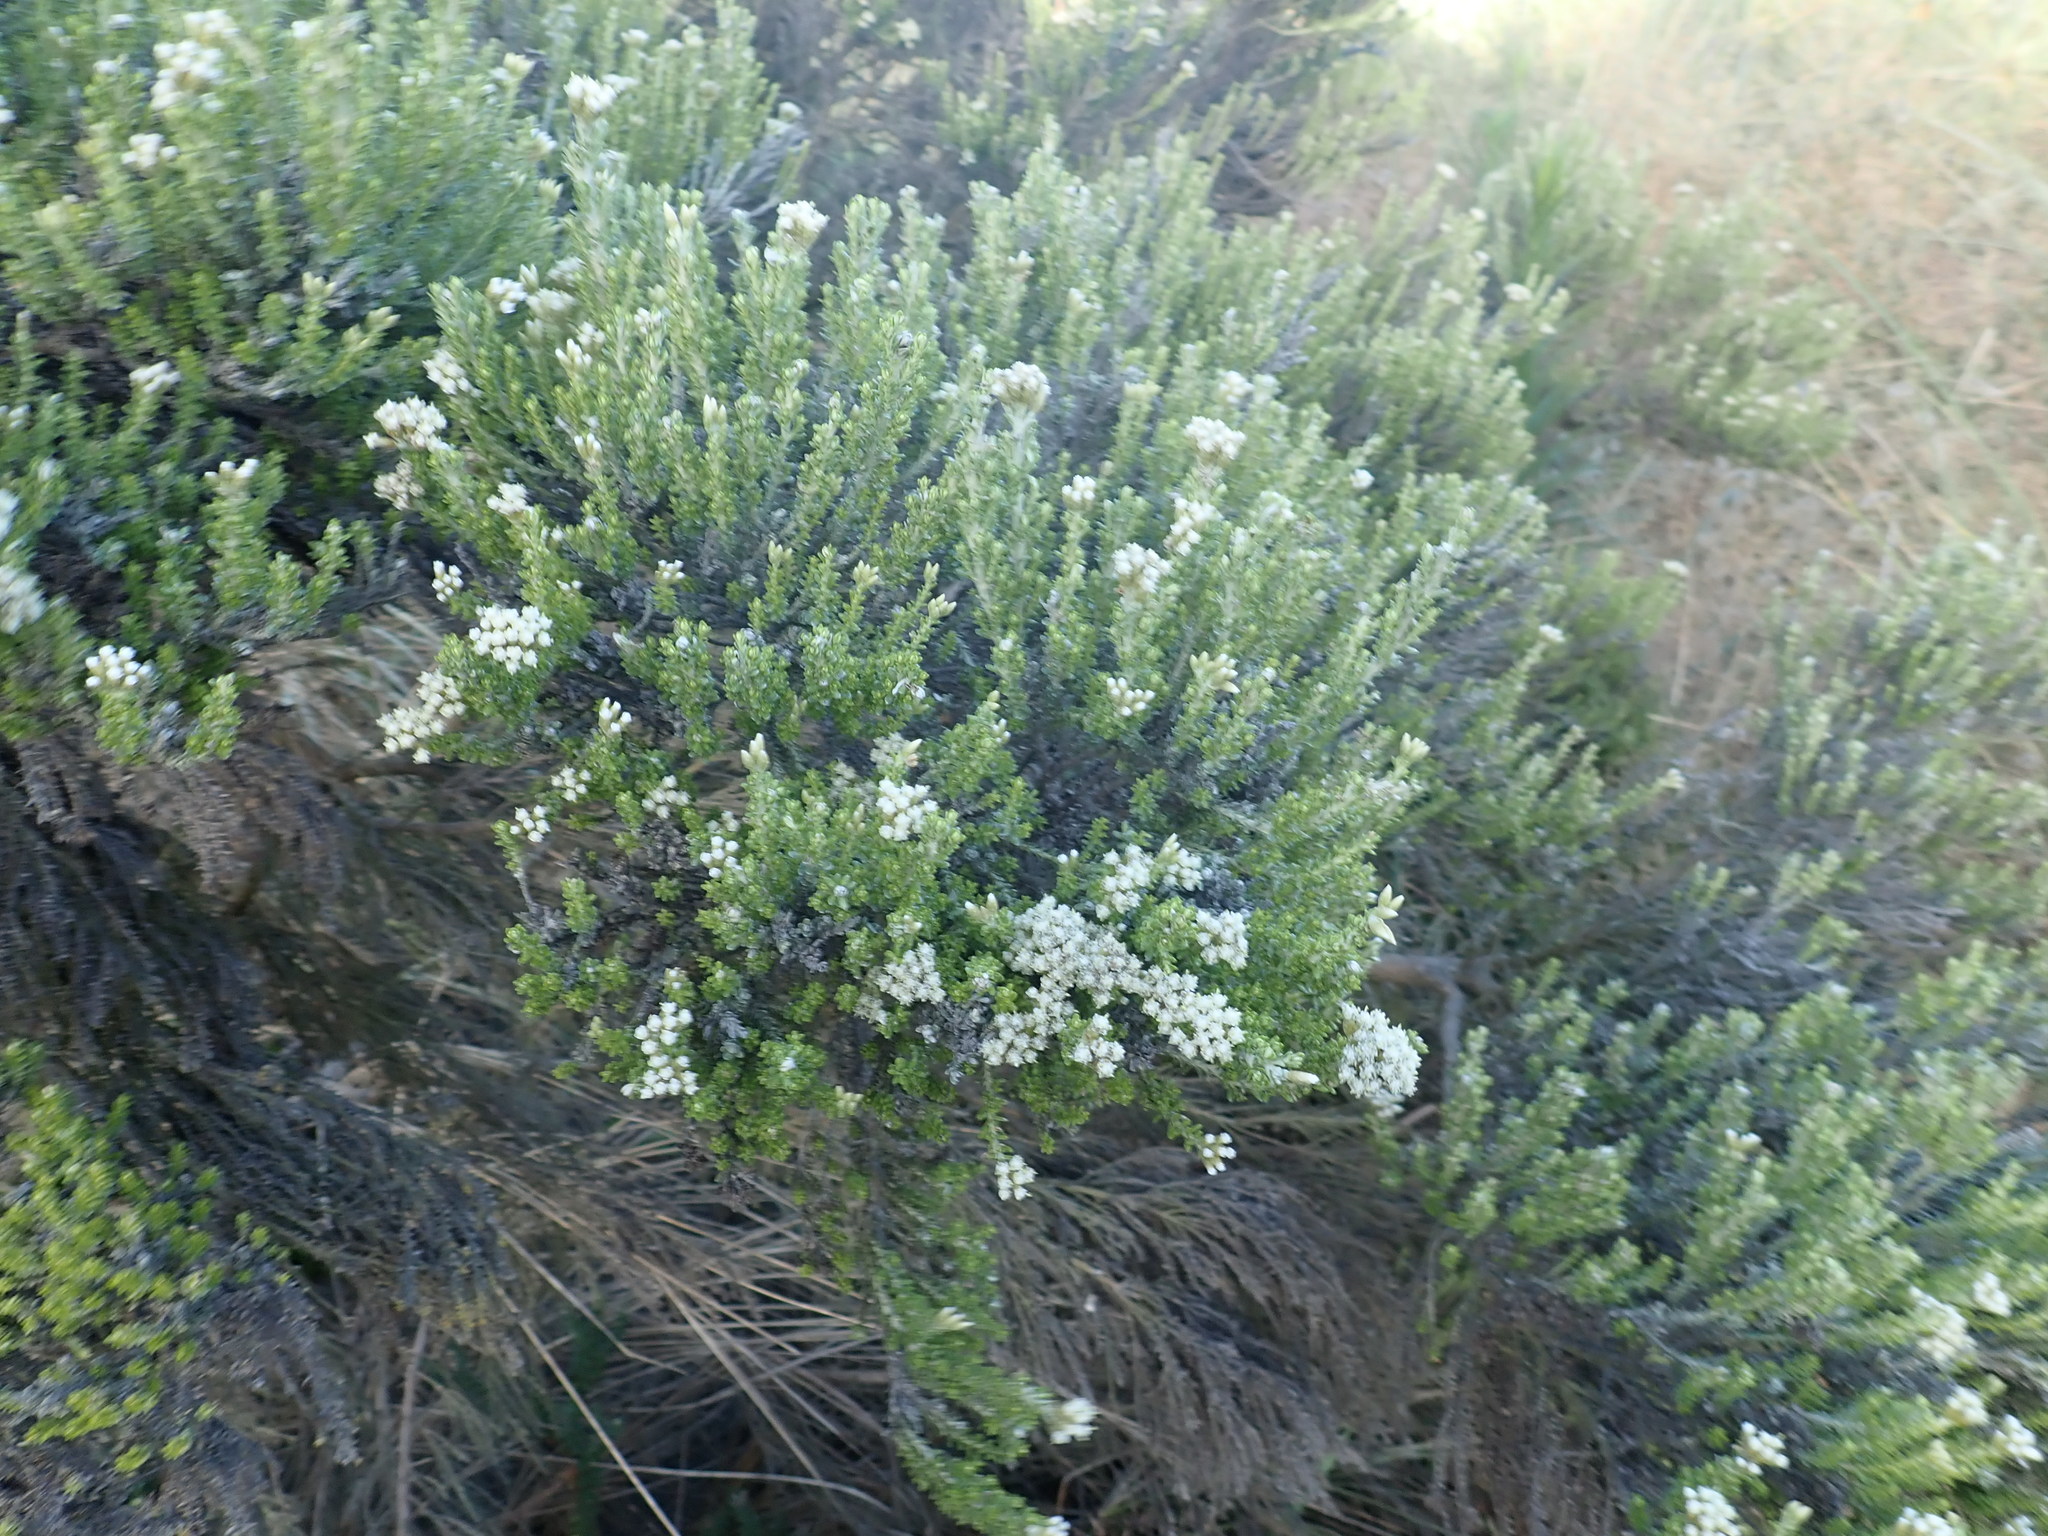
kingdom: Plantae
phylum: Tracheophyta
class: Magnoliopsida
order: Asterales
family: Asteraceae
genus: Ozothamnus
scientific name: Ozothamnus leptophyllus
